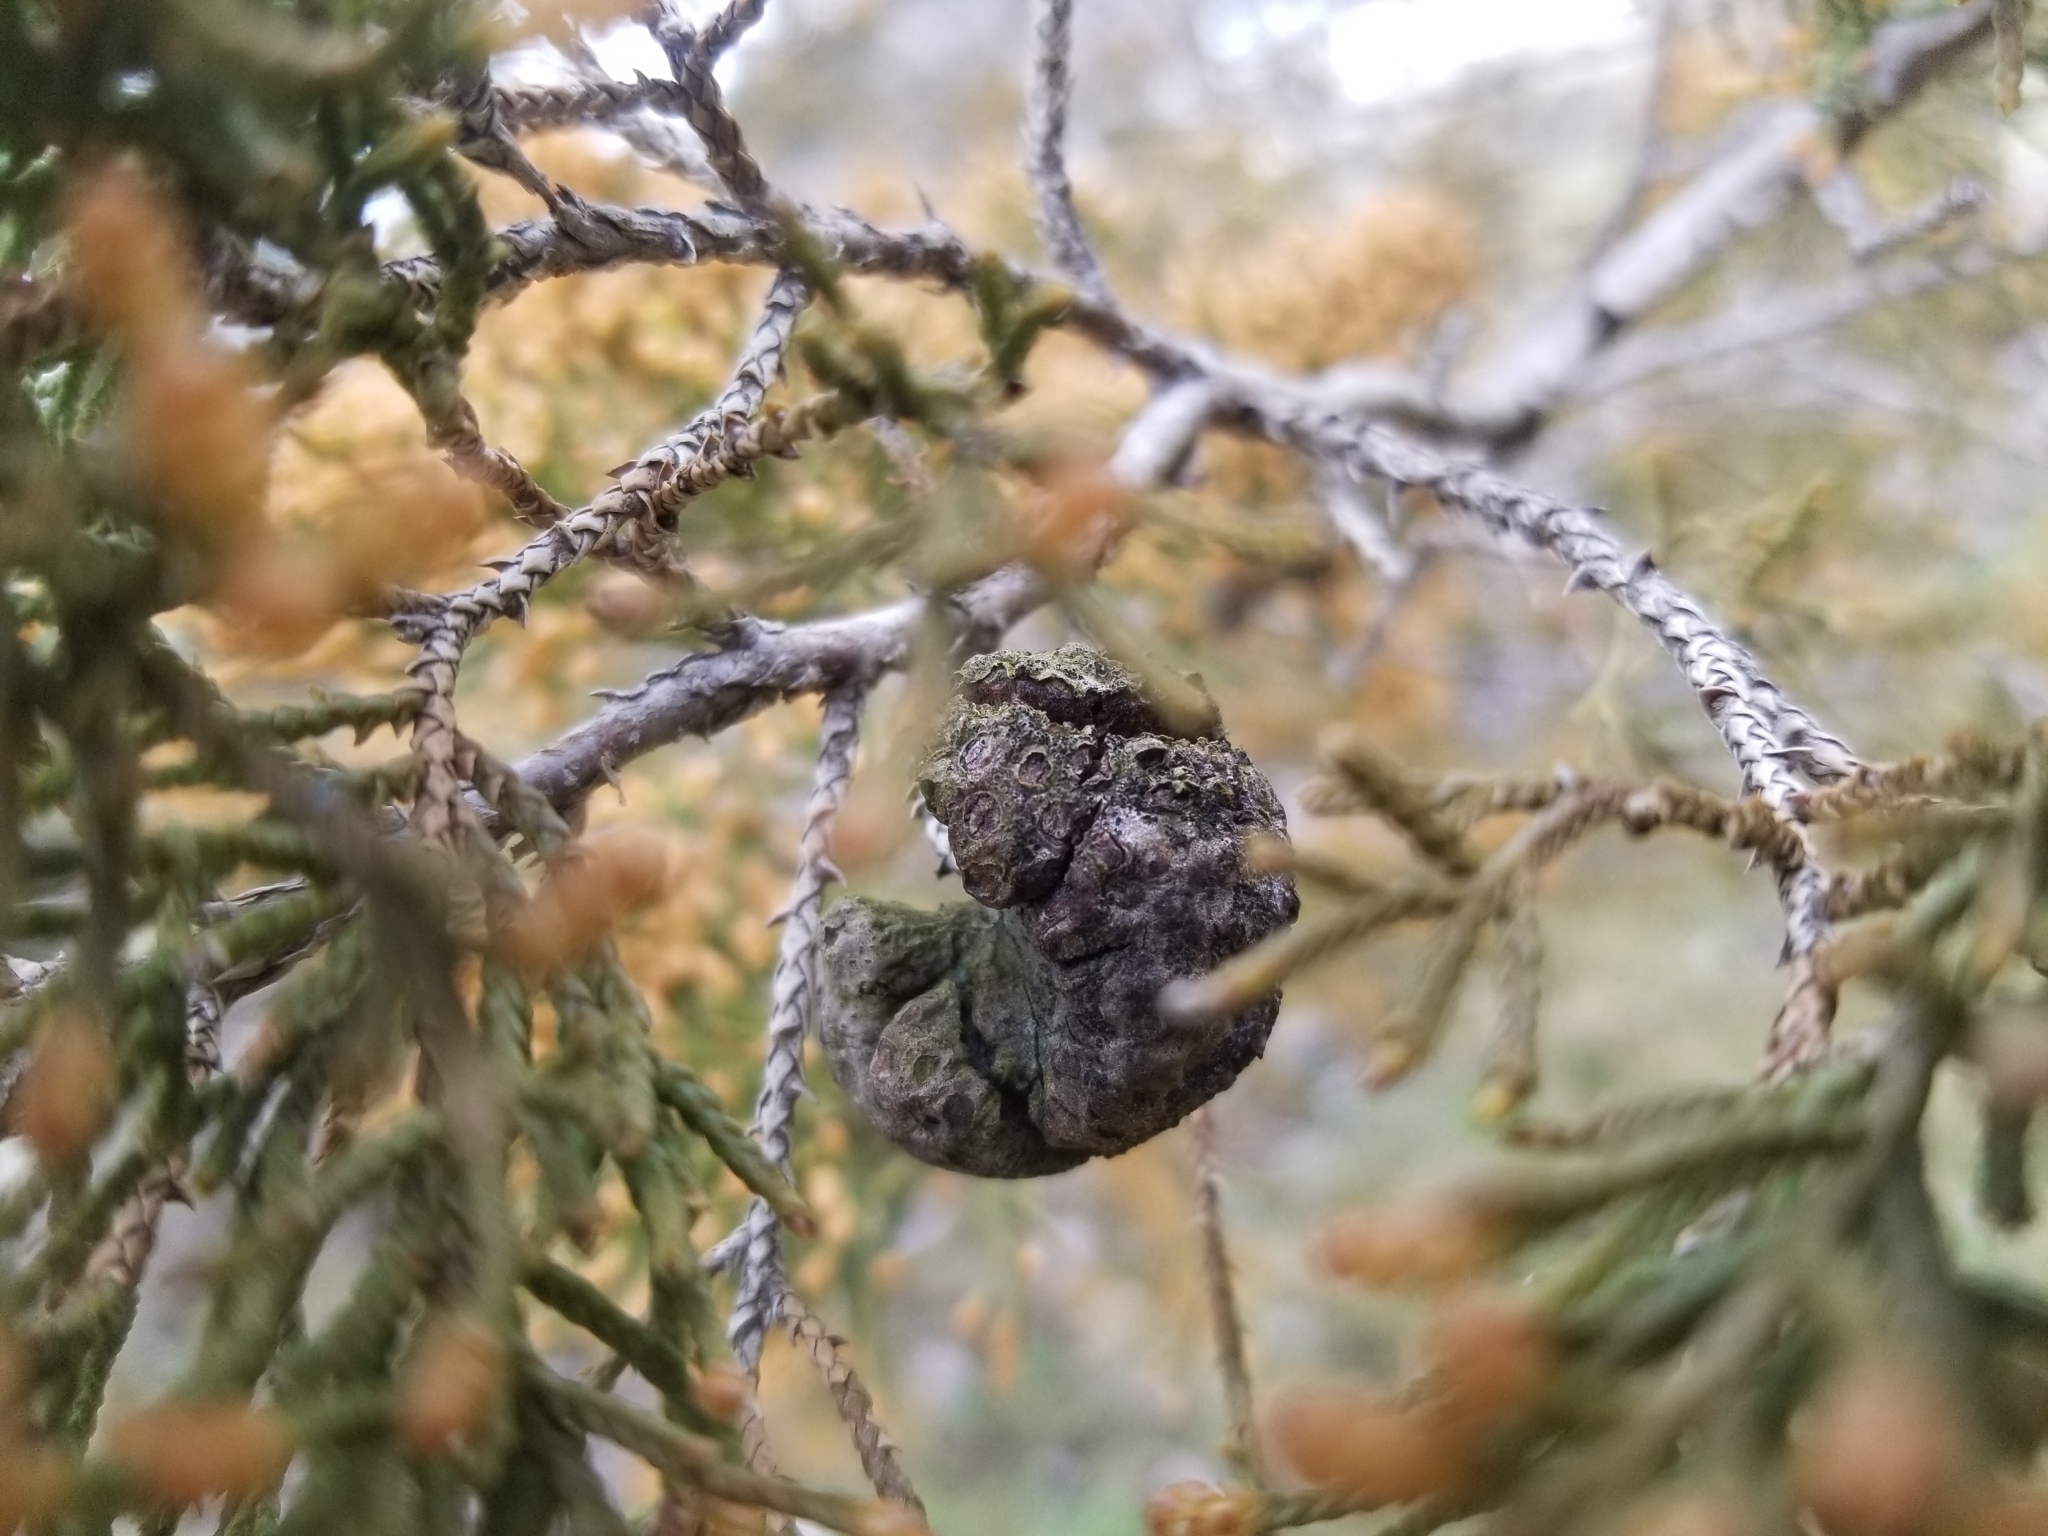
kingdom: Fungi
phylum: Basidiomycota
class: Pucciniomycetes
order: Pucciniales
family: Gymnosporangiaceae
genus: Gymnosporangium
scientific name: Gymnosporangium juniperi-virginianae
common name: Juniper-apple rust
